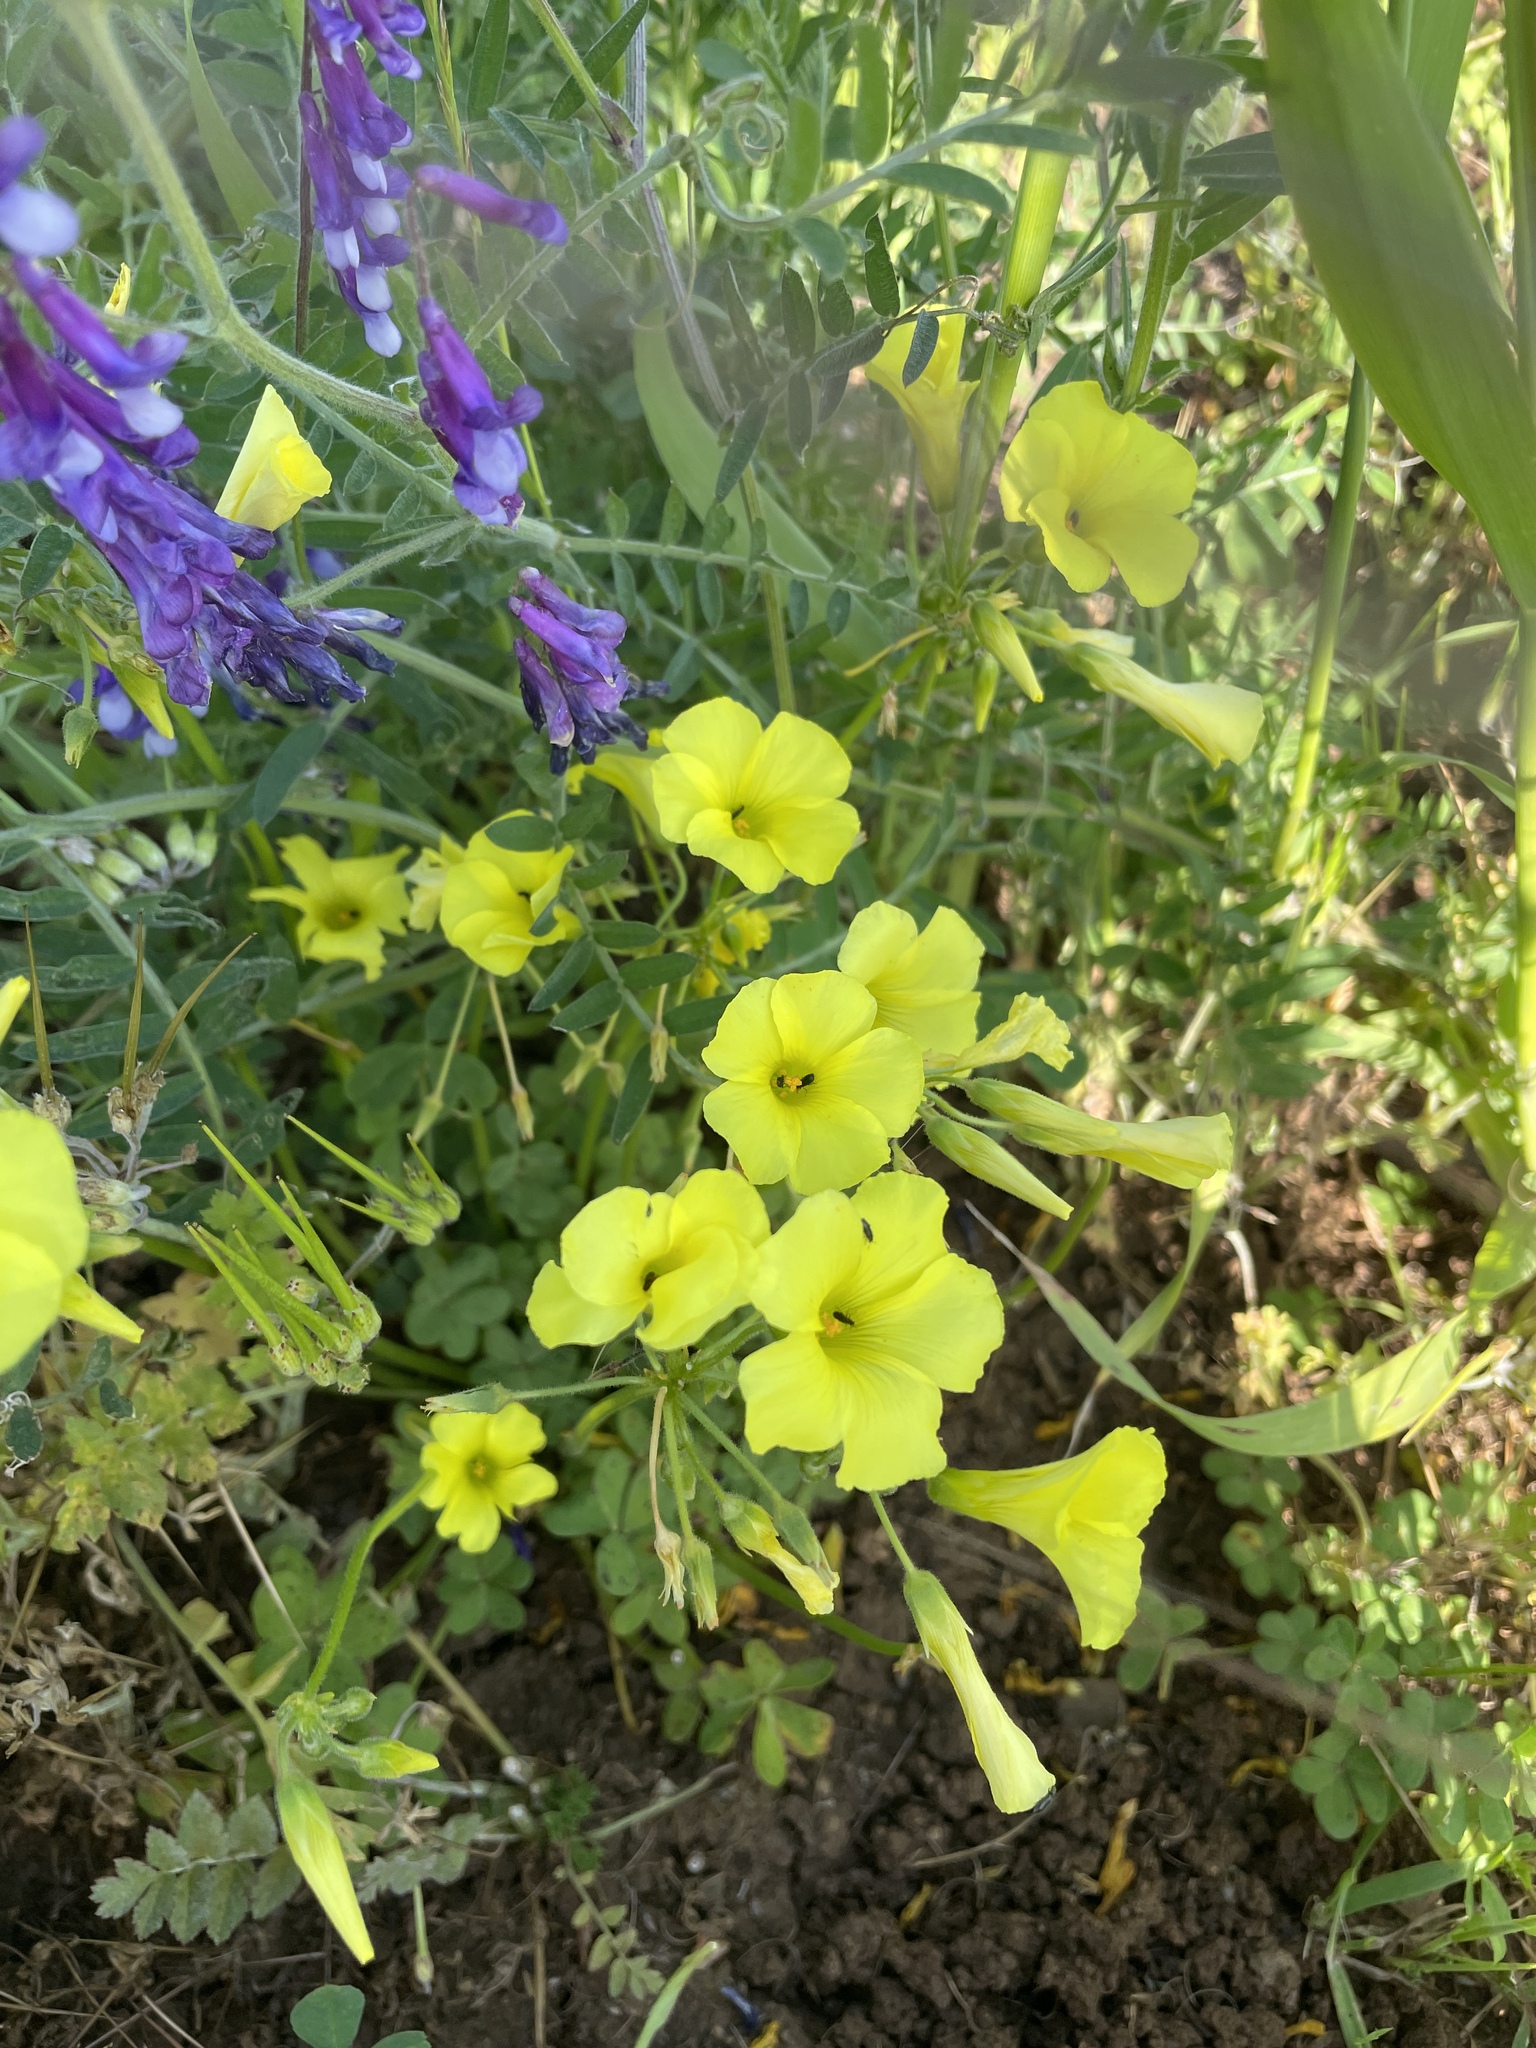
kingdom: Plantae
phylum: Tracheophyta
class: Magnoliopsida
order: Oxalidales
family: Oxalidaceae
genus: Oxalis
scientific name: Oxalis pes-caprae
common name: Bermuda-buttercup
